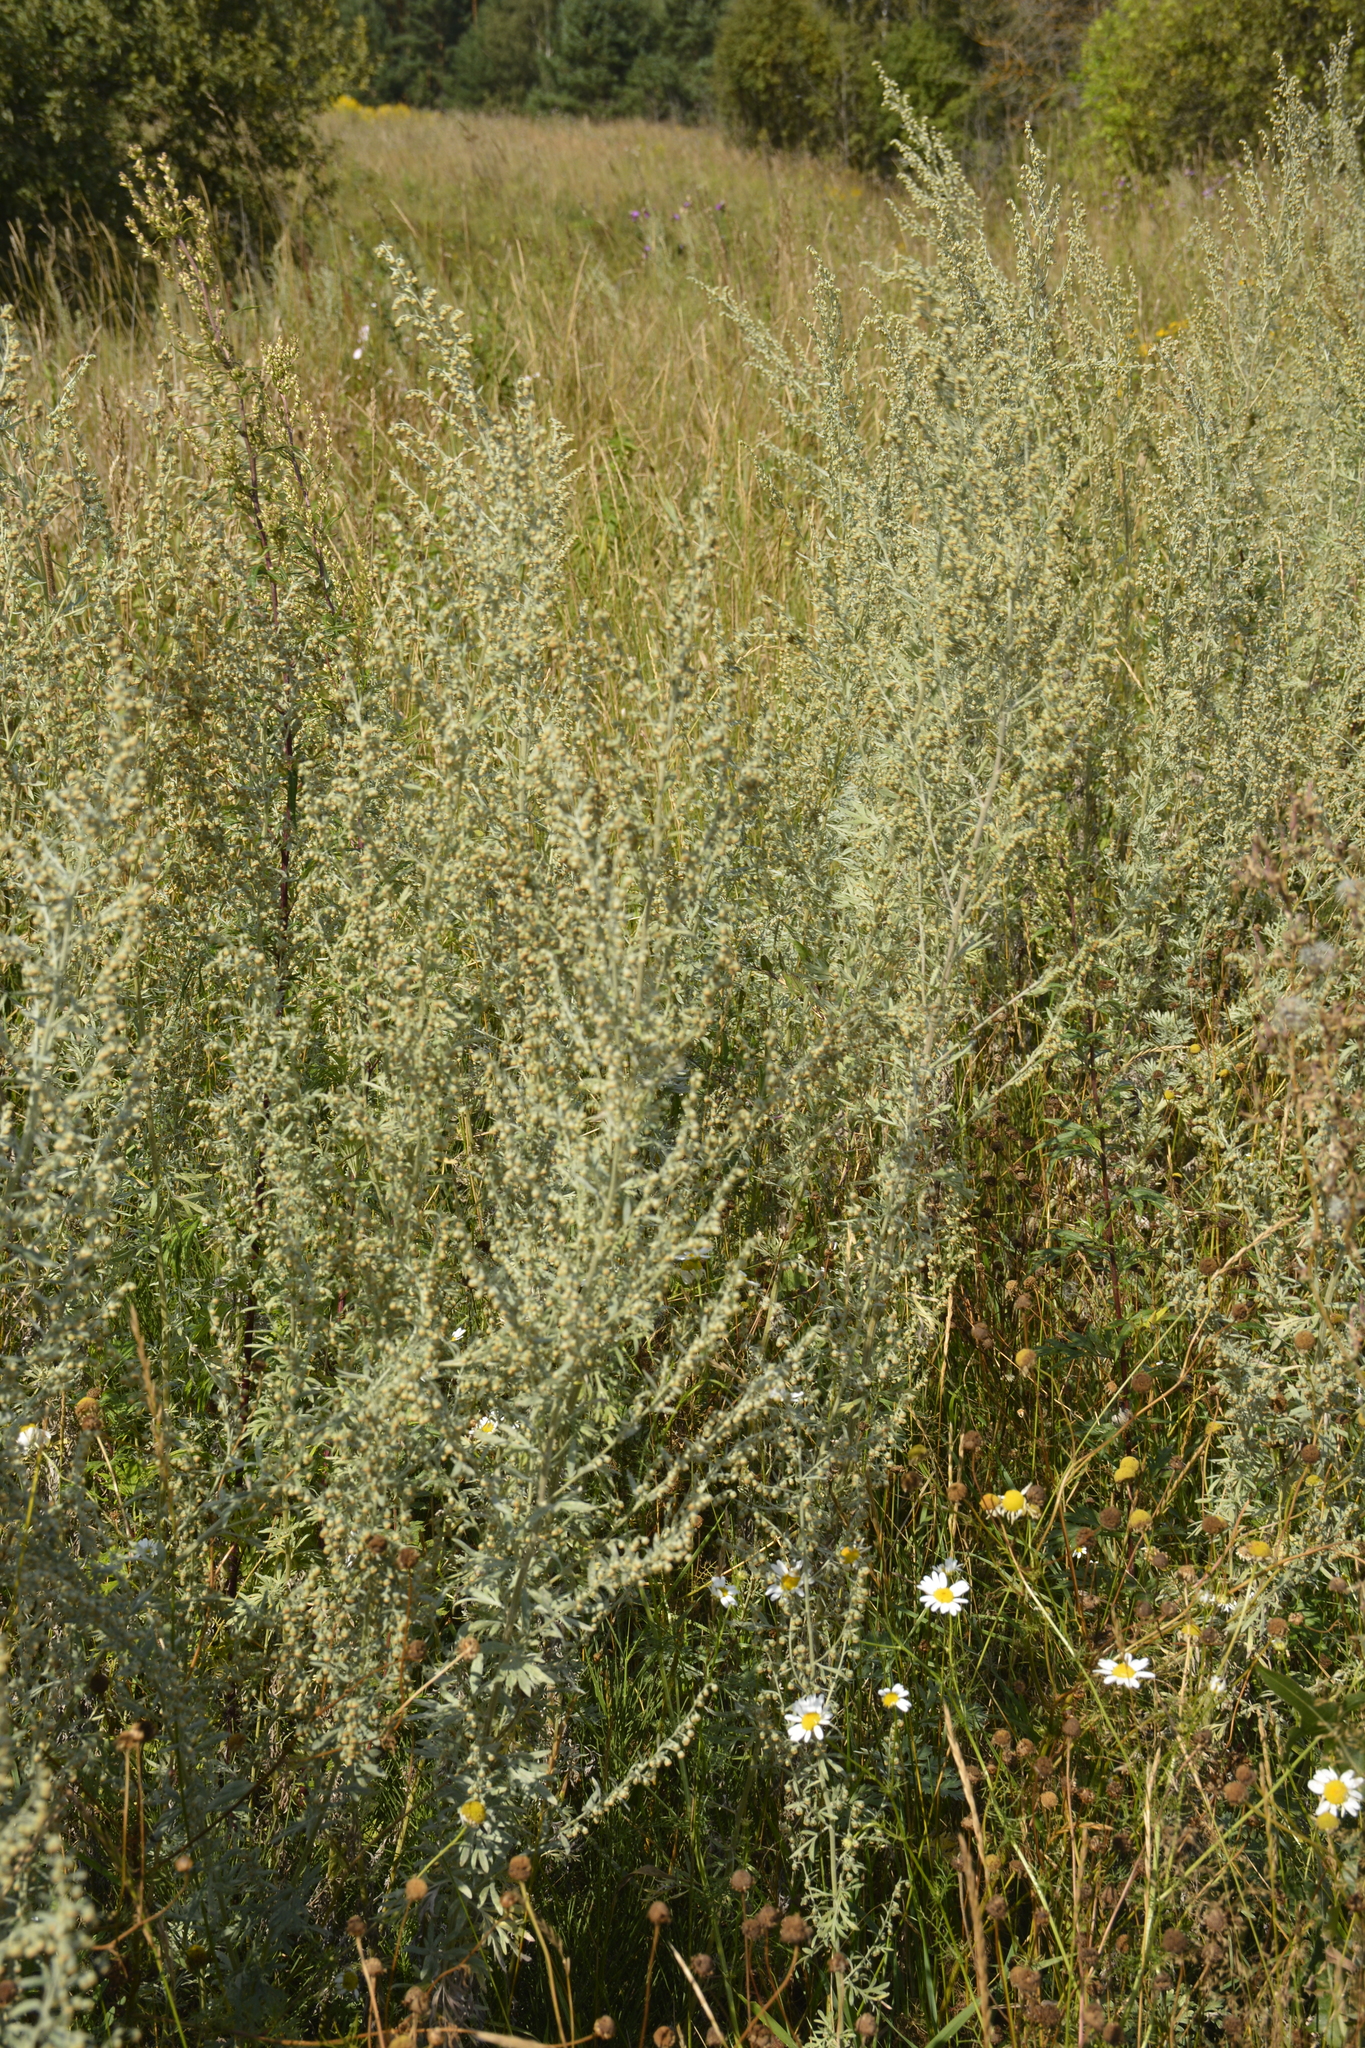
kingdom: Plantae
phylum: Tracheophyta
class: Magnoliopsida
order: Asterales
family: Asteraceae
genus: Artemisia
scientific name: Artemisia absinthium
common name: Wormwood
